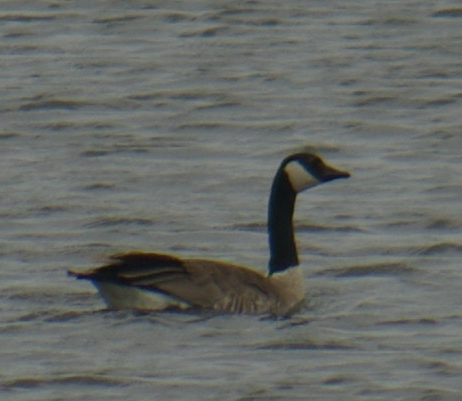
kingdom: Animalia
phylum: Chordata
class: Aves
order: Anseriformes
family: Anatidae
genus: Branta
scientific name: Branta canadensis
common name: Canada goose
